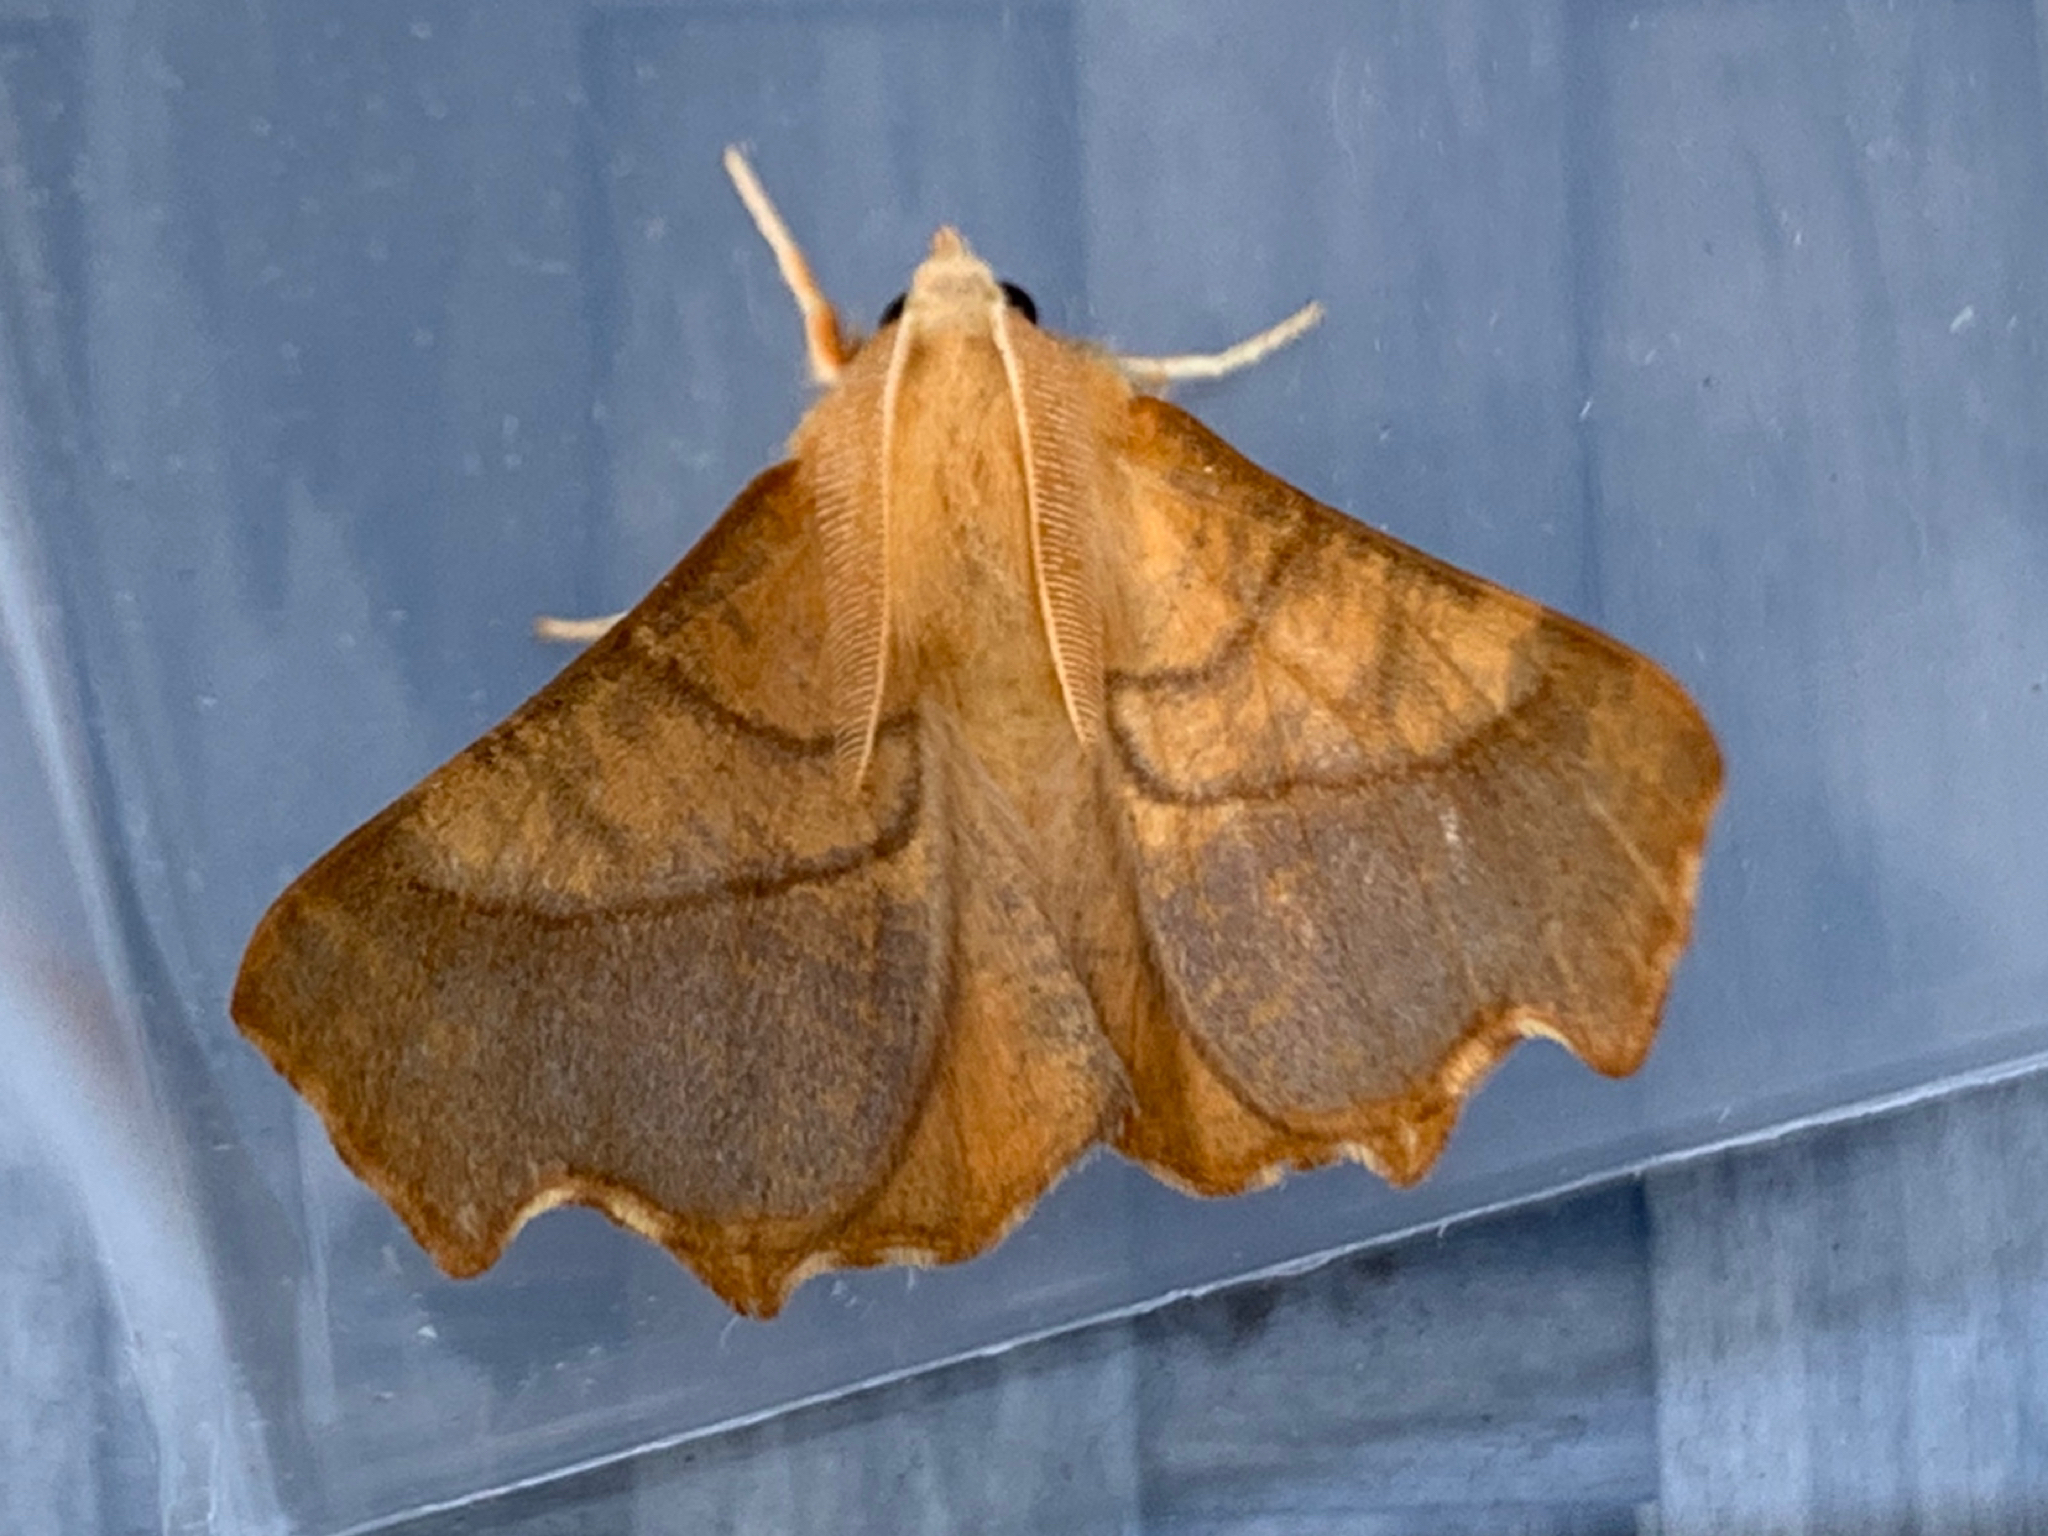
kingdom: Animalia
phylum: Arthropoda
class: Insecta
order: Lepidoptera
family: Geometridae
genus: Ennomos
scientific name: Ennomos fuscantaria
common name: Dusky thorn
